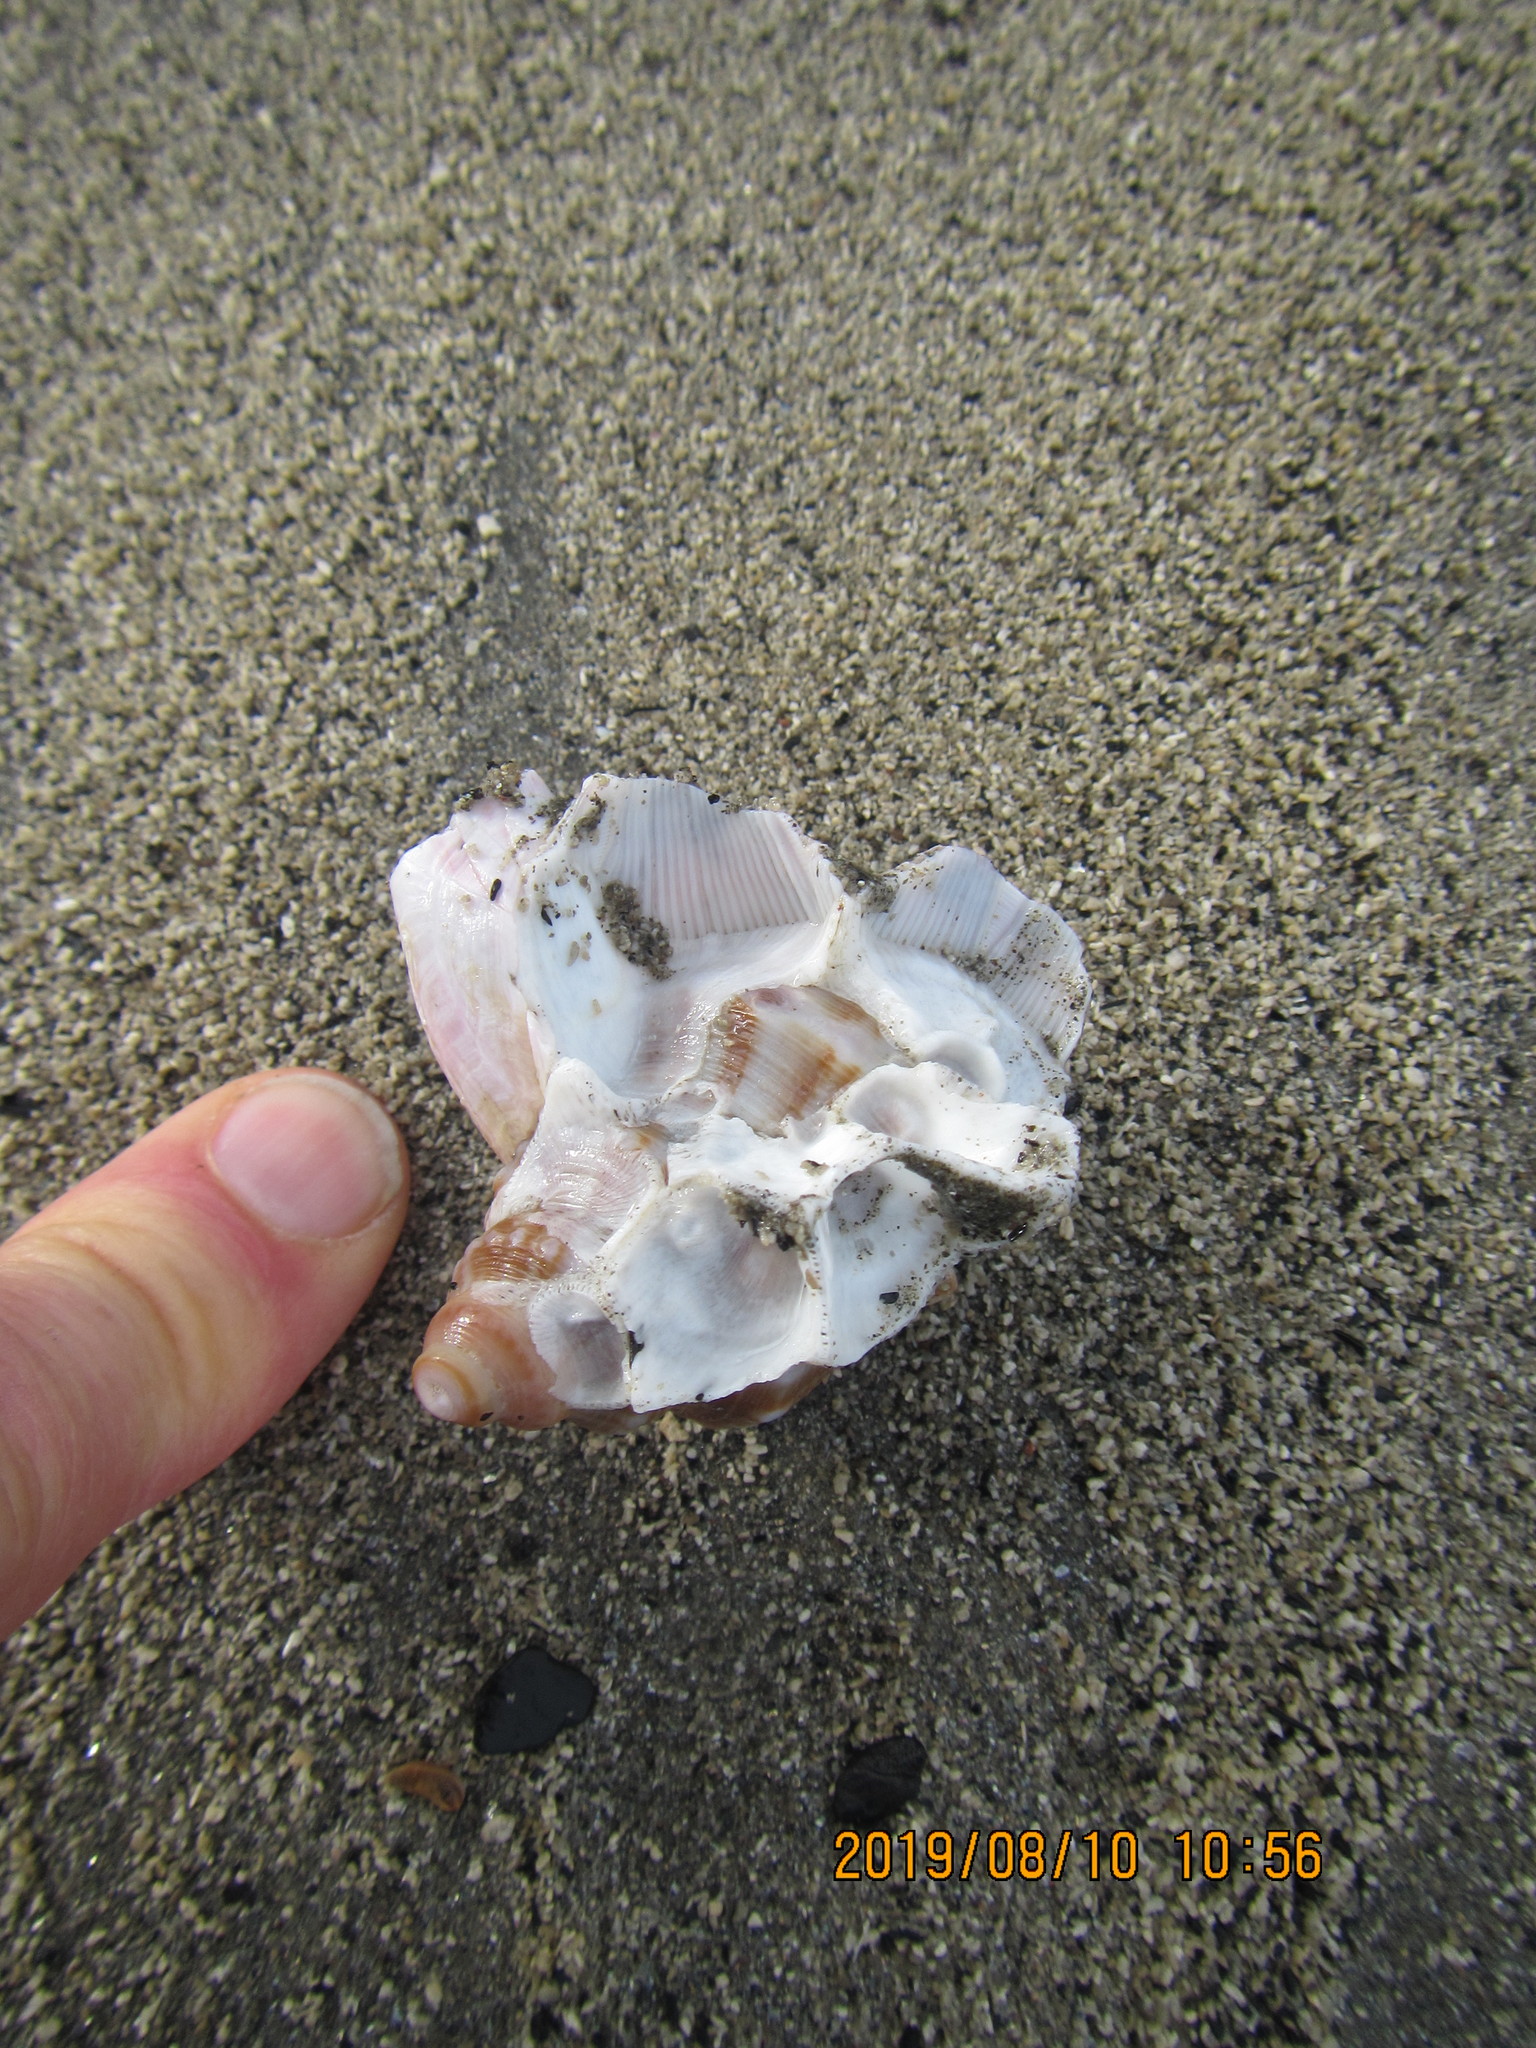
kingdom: Animalia
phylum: Arthropoda
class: Maxillopoda
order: Sessilia
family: Balanidae
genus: Notomegabalanus
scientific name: Notomegabalanus decorus
